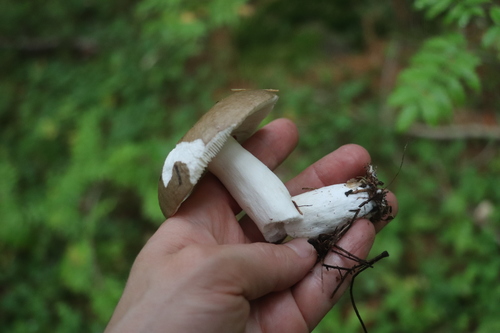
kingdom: Fungi
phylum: Basidiomycota
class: Agaricomycetes
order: Russulales
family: Russulaceae
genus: Russula
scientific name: Russula consobrina
